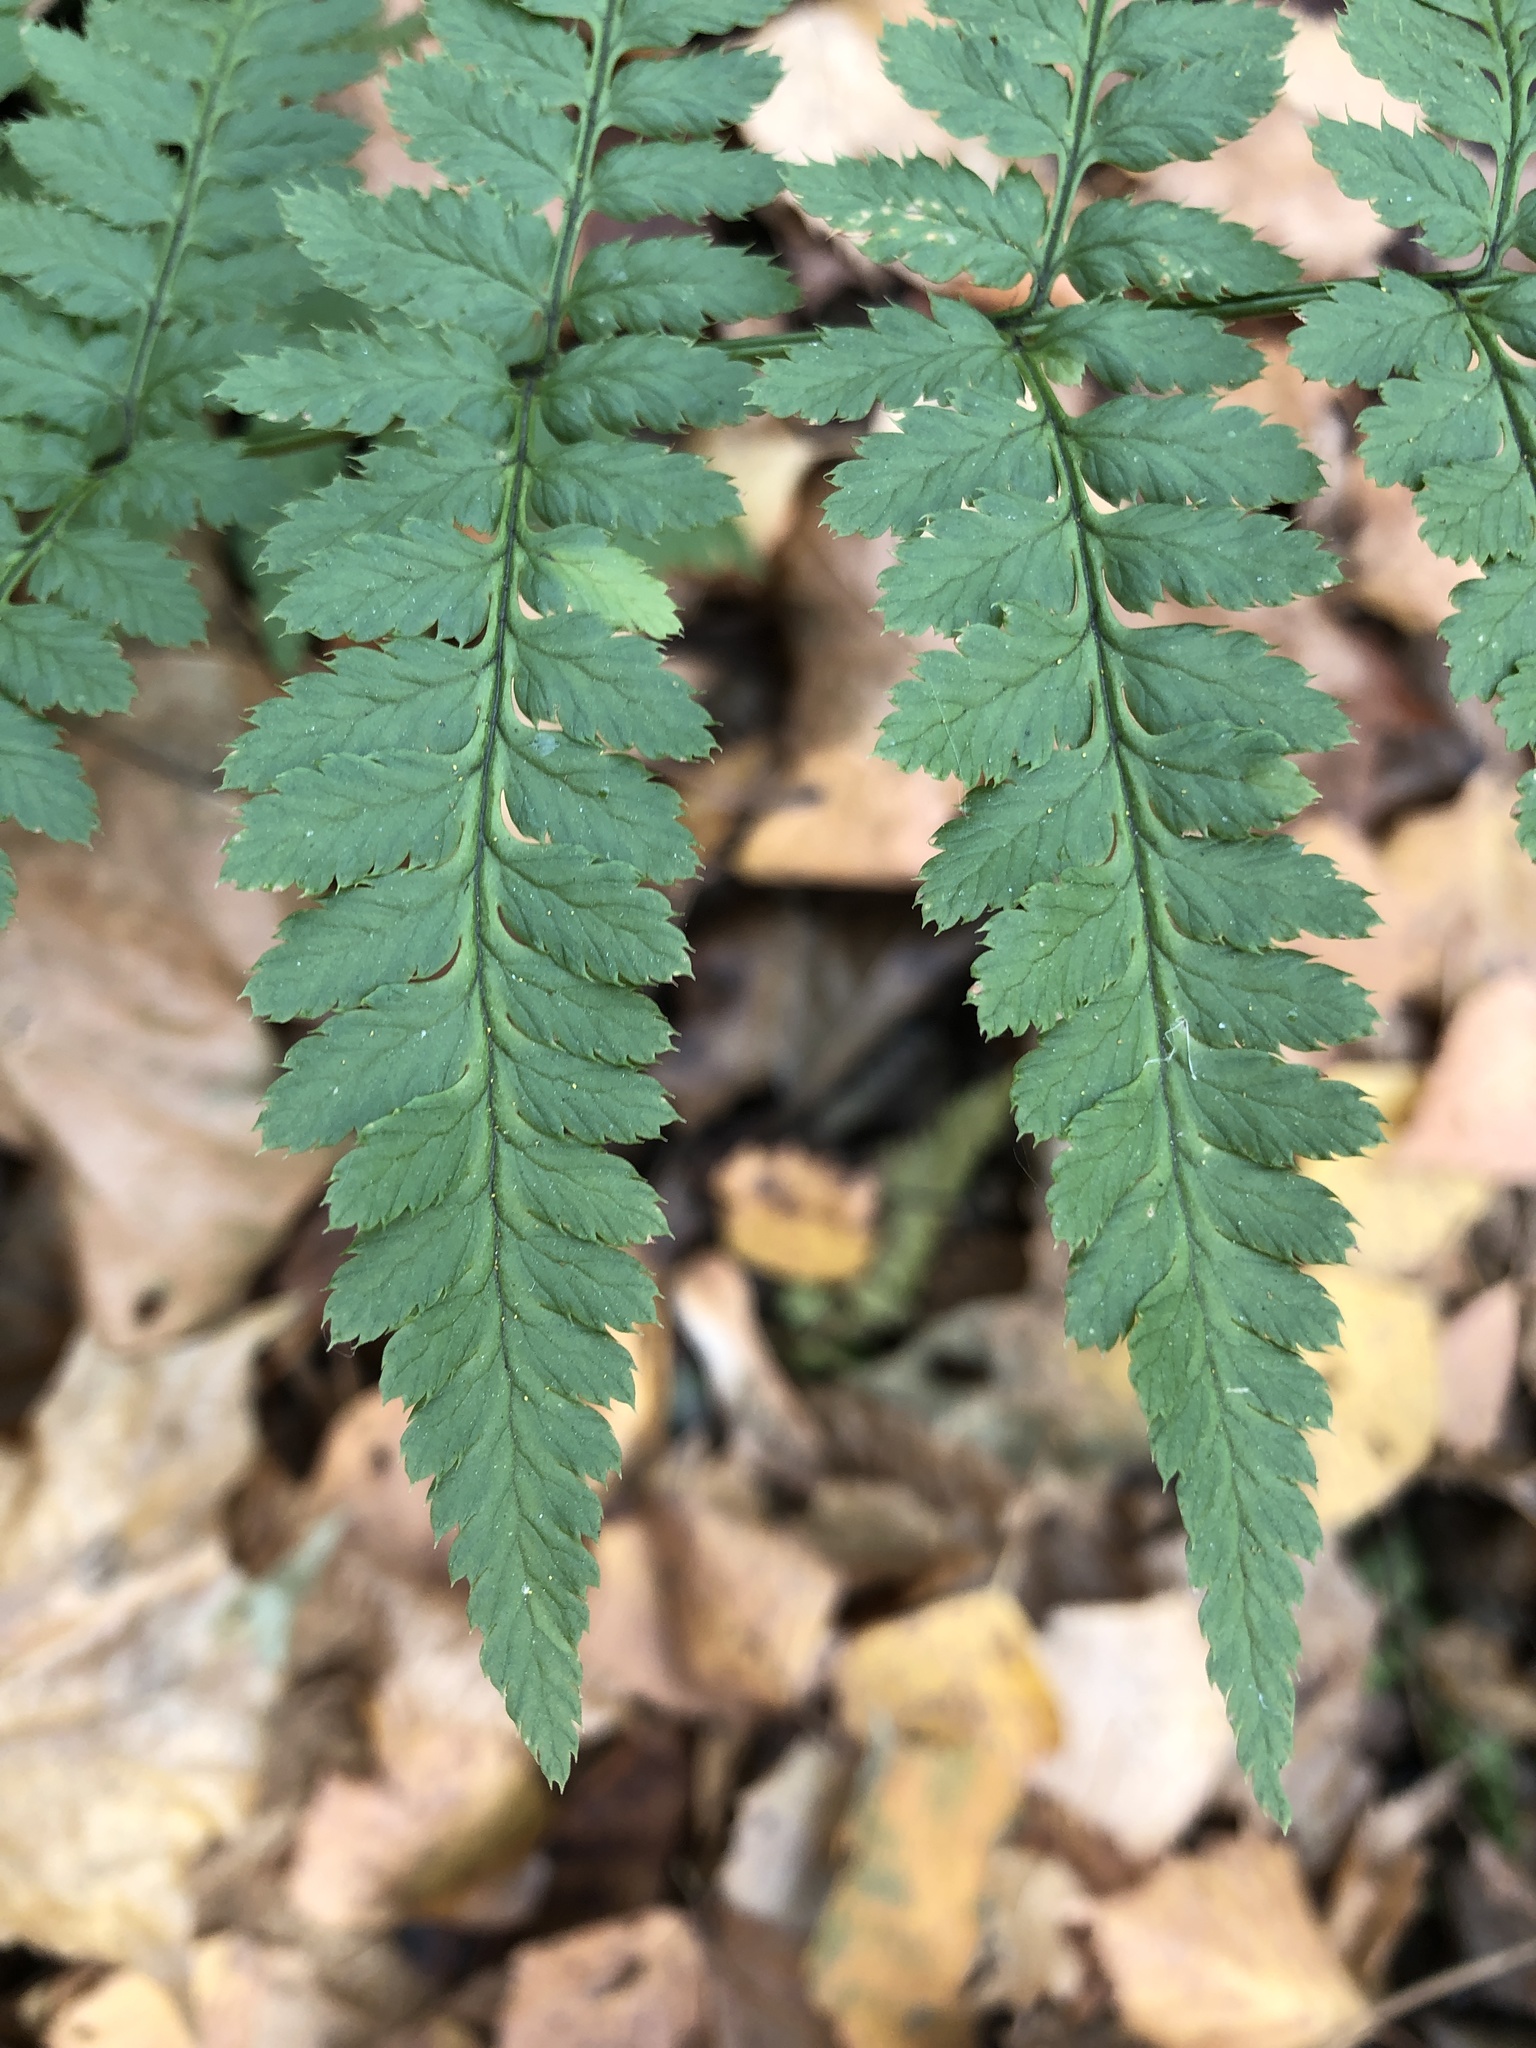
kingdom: Plantae
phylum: Tracheophyta
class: Polypodiopsida
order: Polypodiales
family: Dryopteridaceae
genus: Dryopteris
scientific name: Dryopteris carthusiana
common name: Narrow buckler-fern
